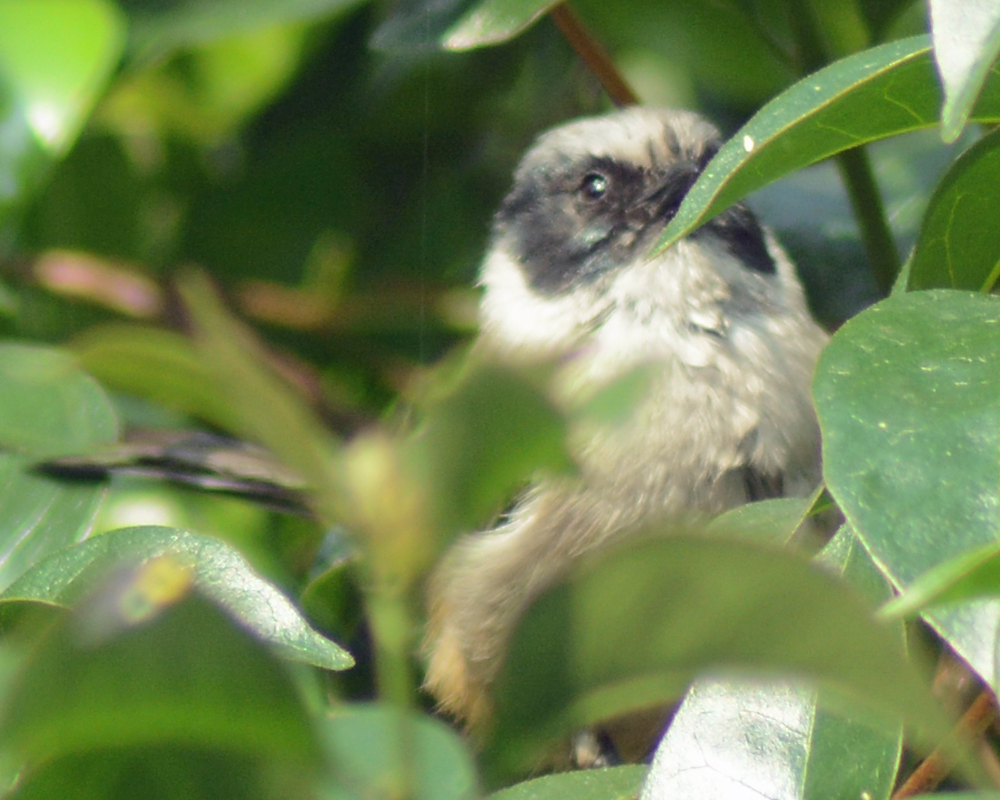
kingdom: Animalia
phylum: Chordata
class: Aves
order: Passeriformes
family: Aegithalidae
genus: Psaltriparus
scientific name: Psaltriparus minimus
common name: American bushtit
